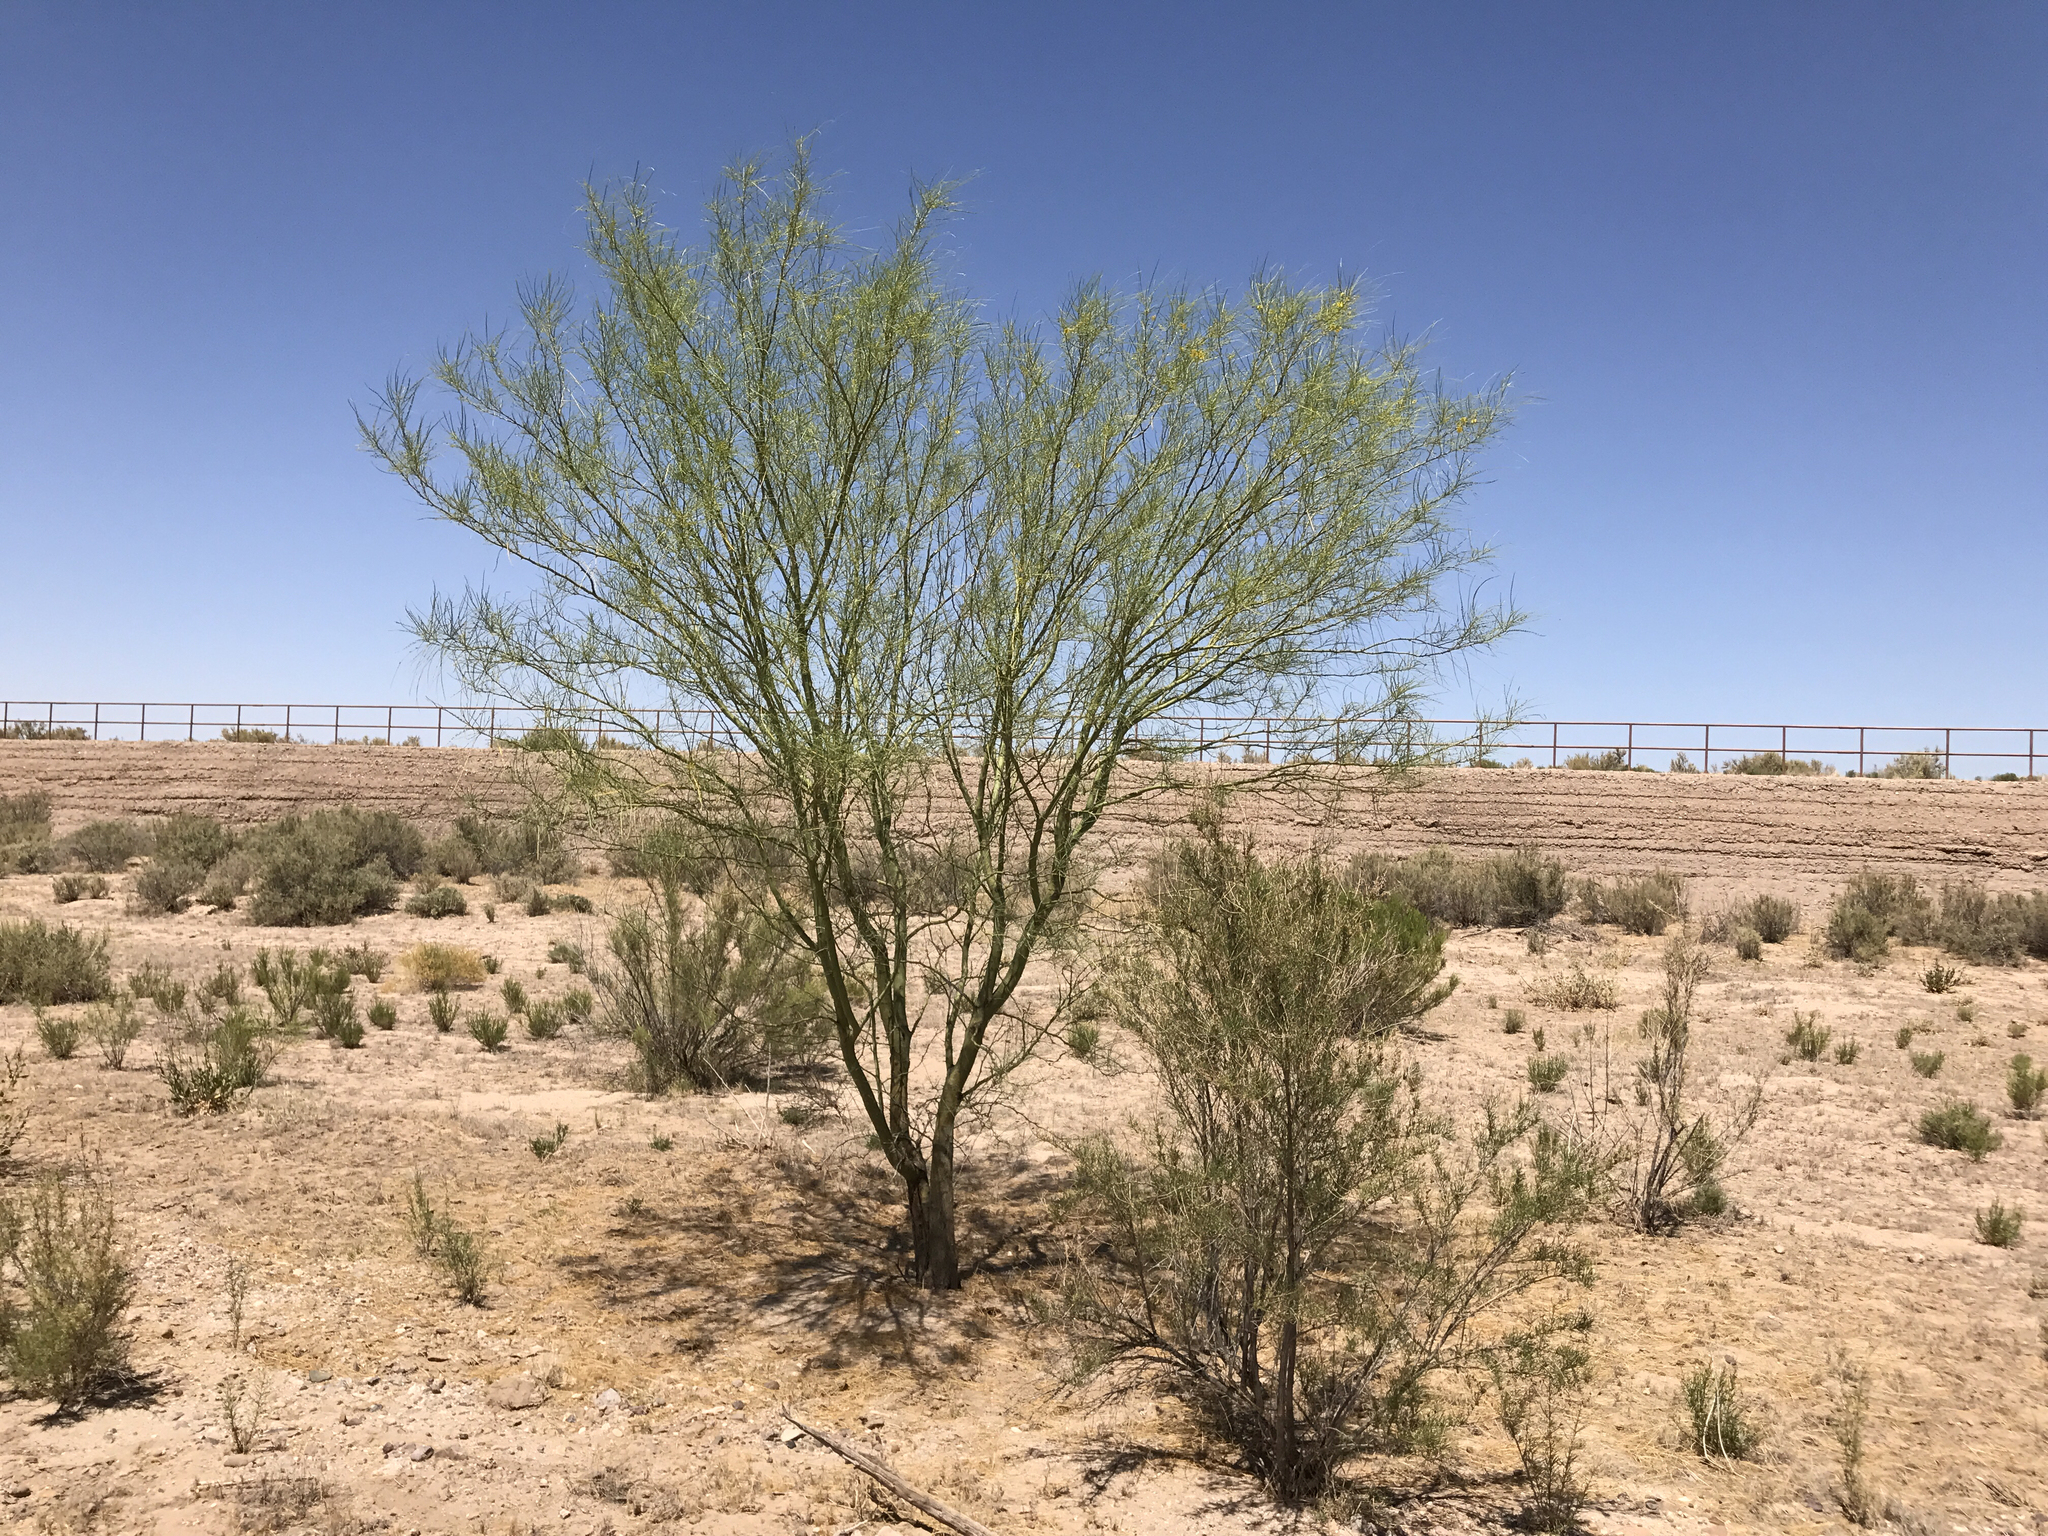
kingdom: Plantae
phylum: Tracheophyta
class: Magnoliopsida
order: Fabales
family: Fabaceae
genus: Parkinsonia
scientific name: Parkinsonia aculeata
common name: Jerusalem thorn
